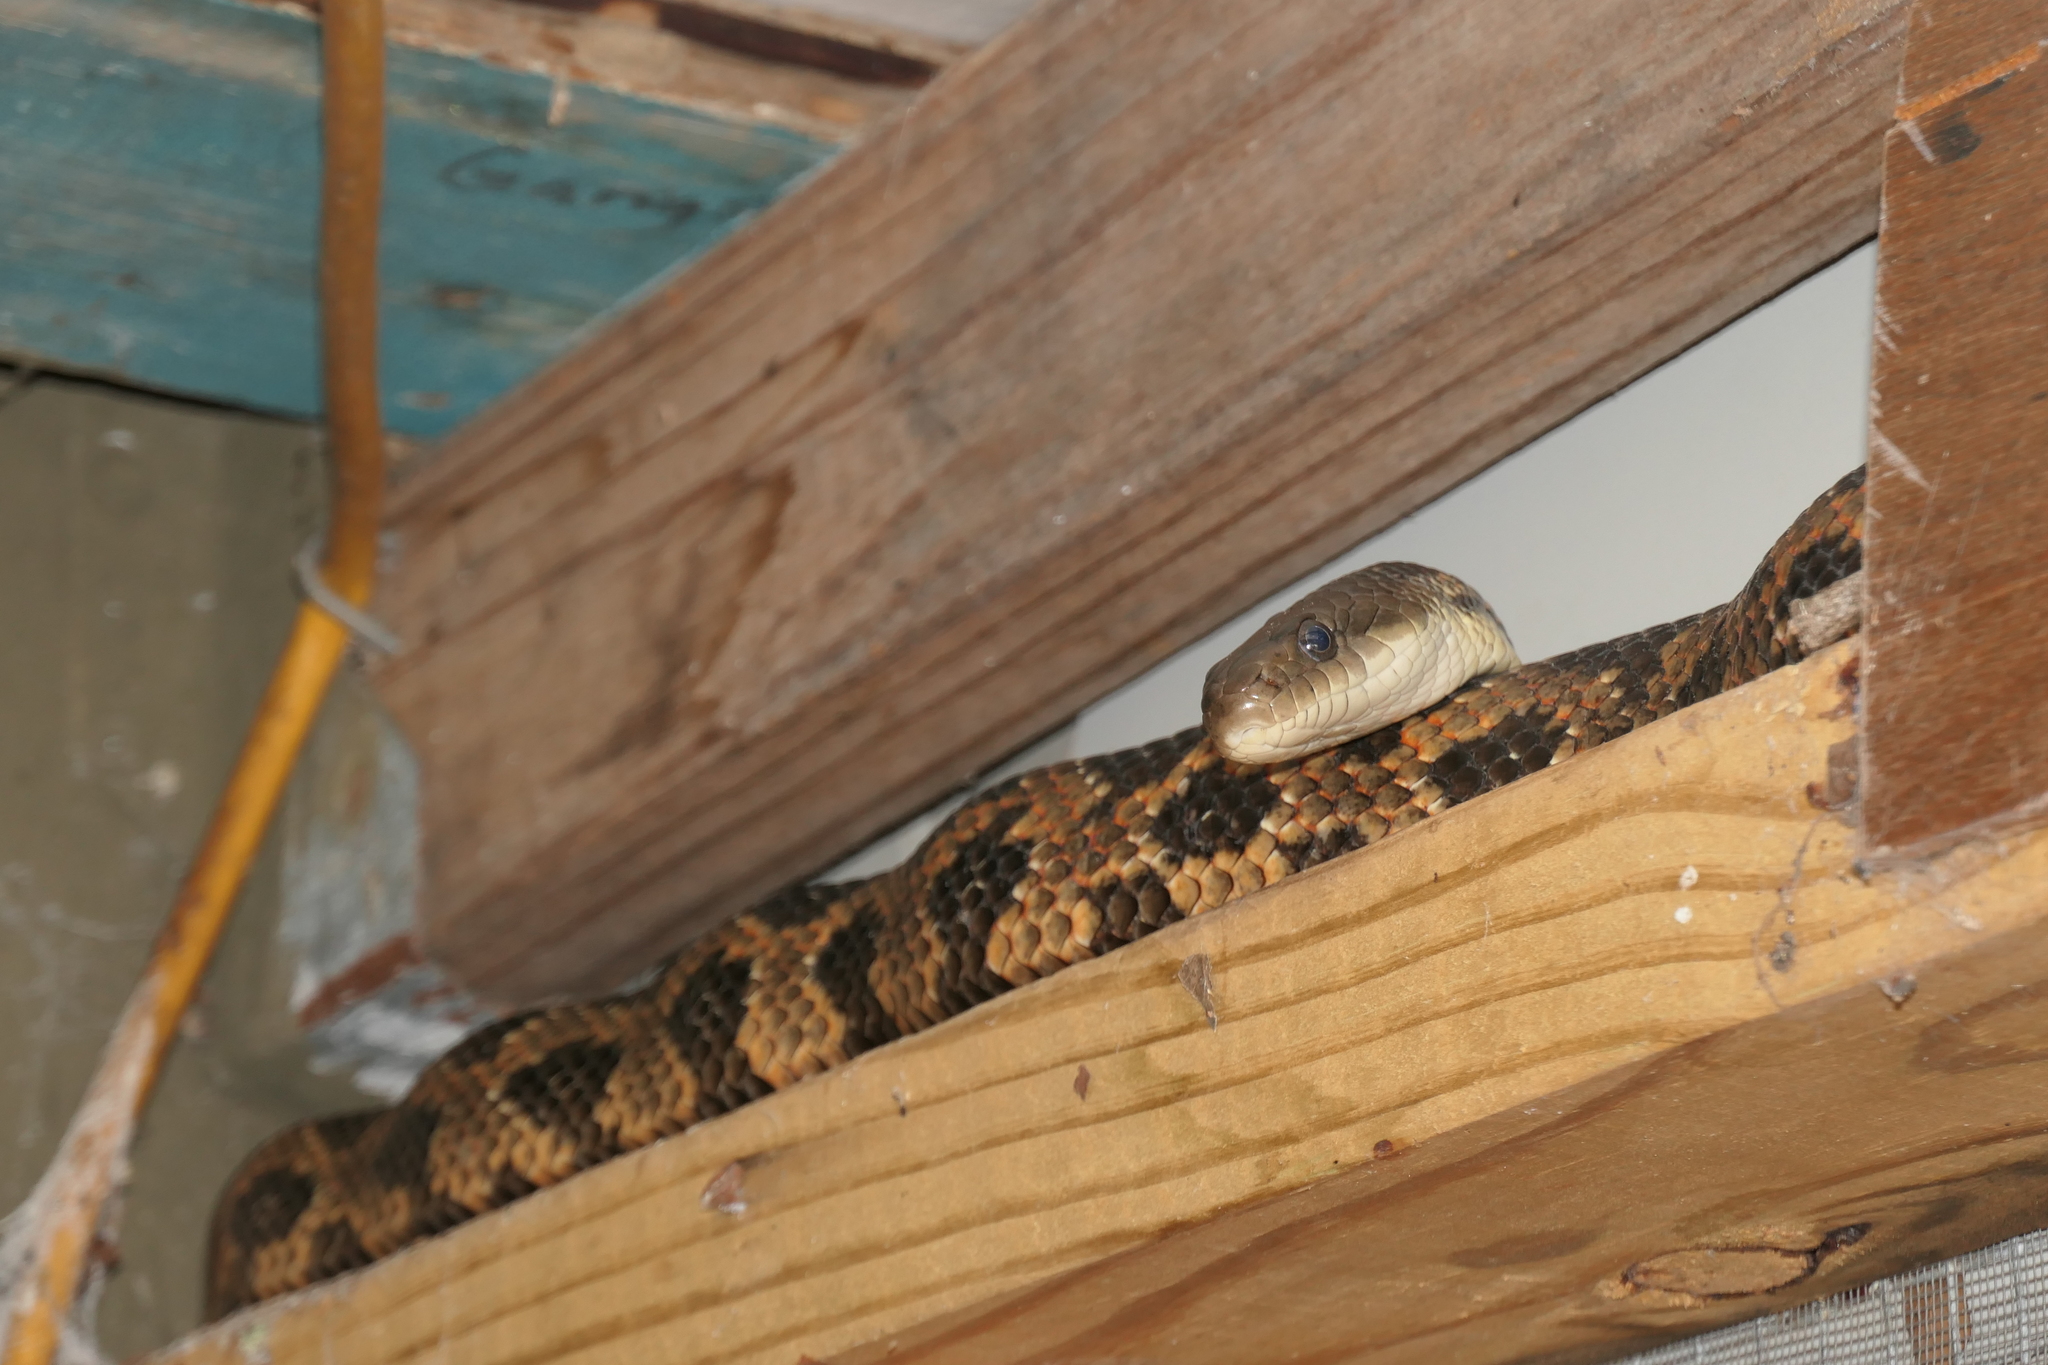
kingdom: Animalia
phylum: Chordata
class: Squamata
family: Colubridae
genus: Pantherophis
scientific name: Pantherophis obsoletus
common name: Black rat snake
